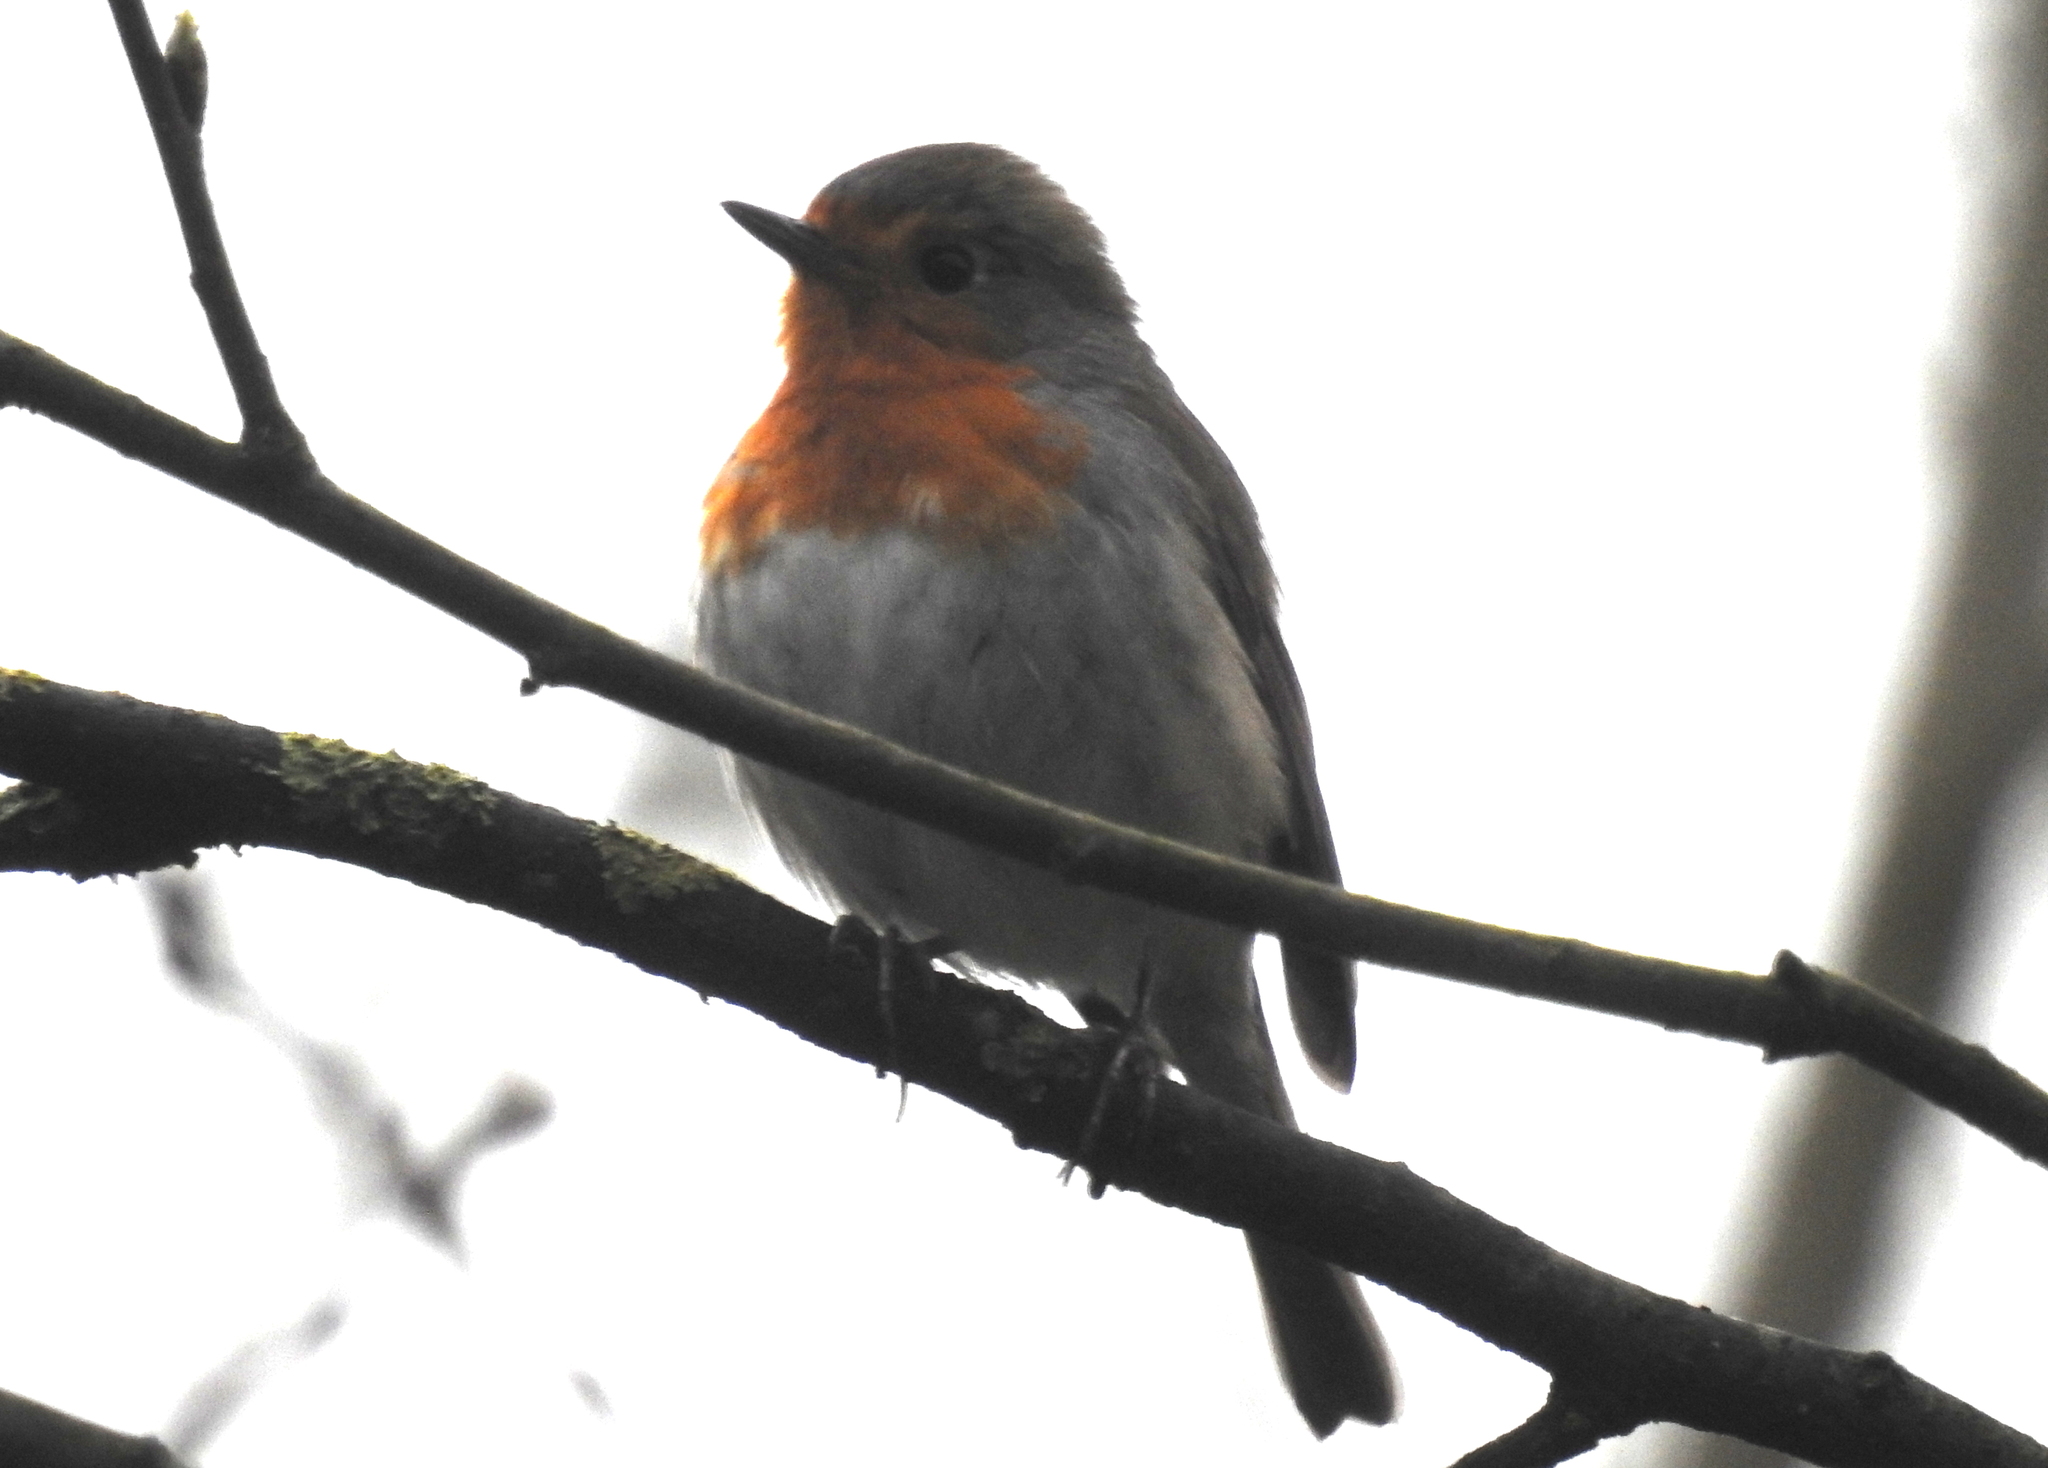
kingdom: Animalia
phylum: Chordata
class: Aves
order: Passeriformes
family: Muscicapidae
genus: Erithacus
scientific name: Erithacus rubecula
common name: European robin
